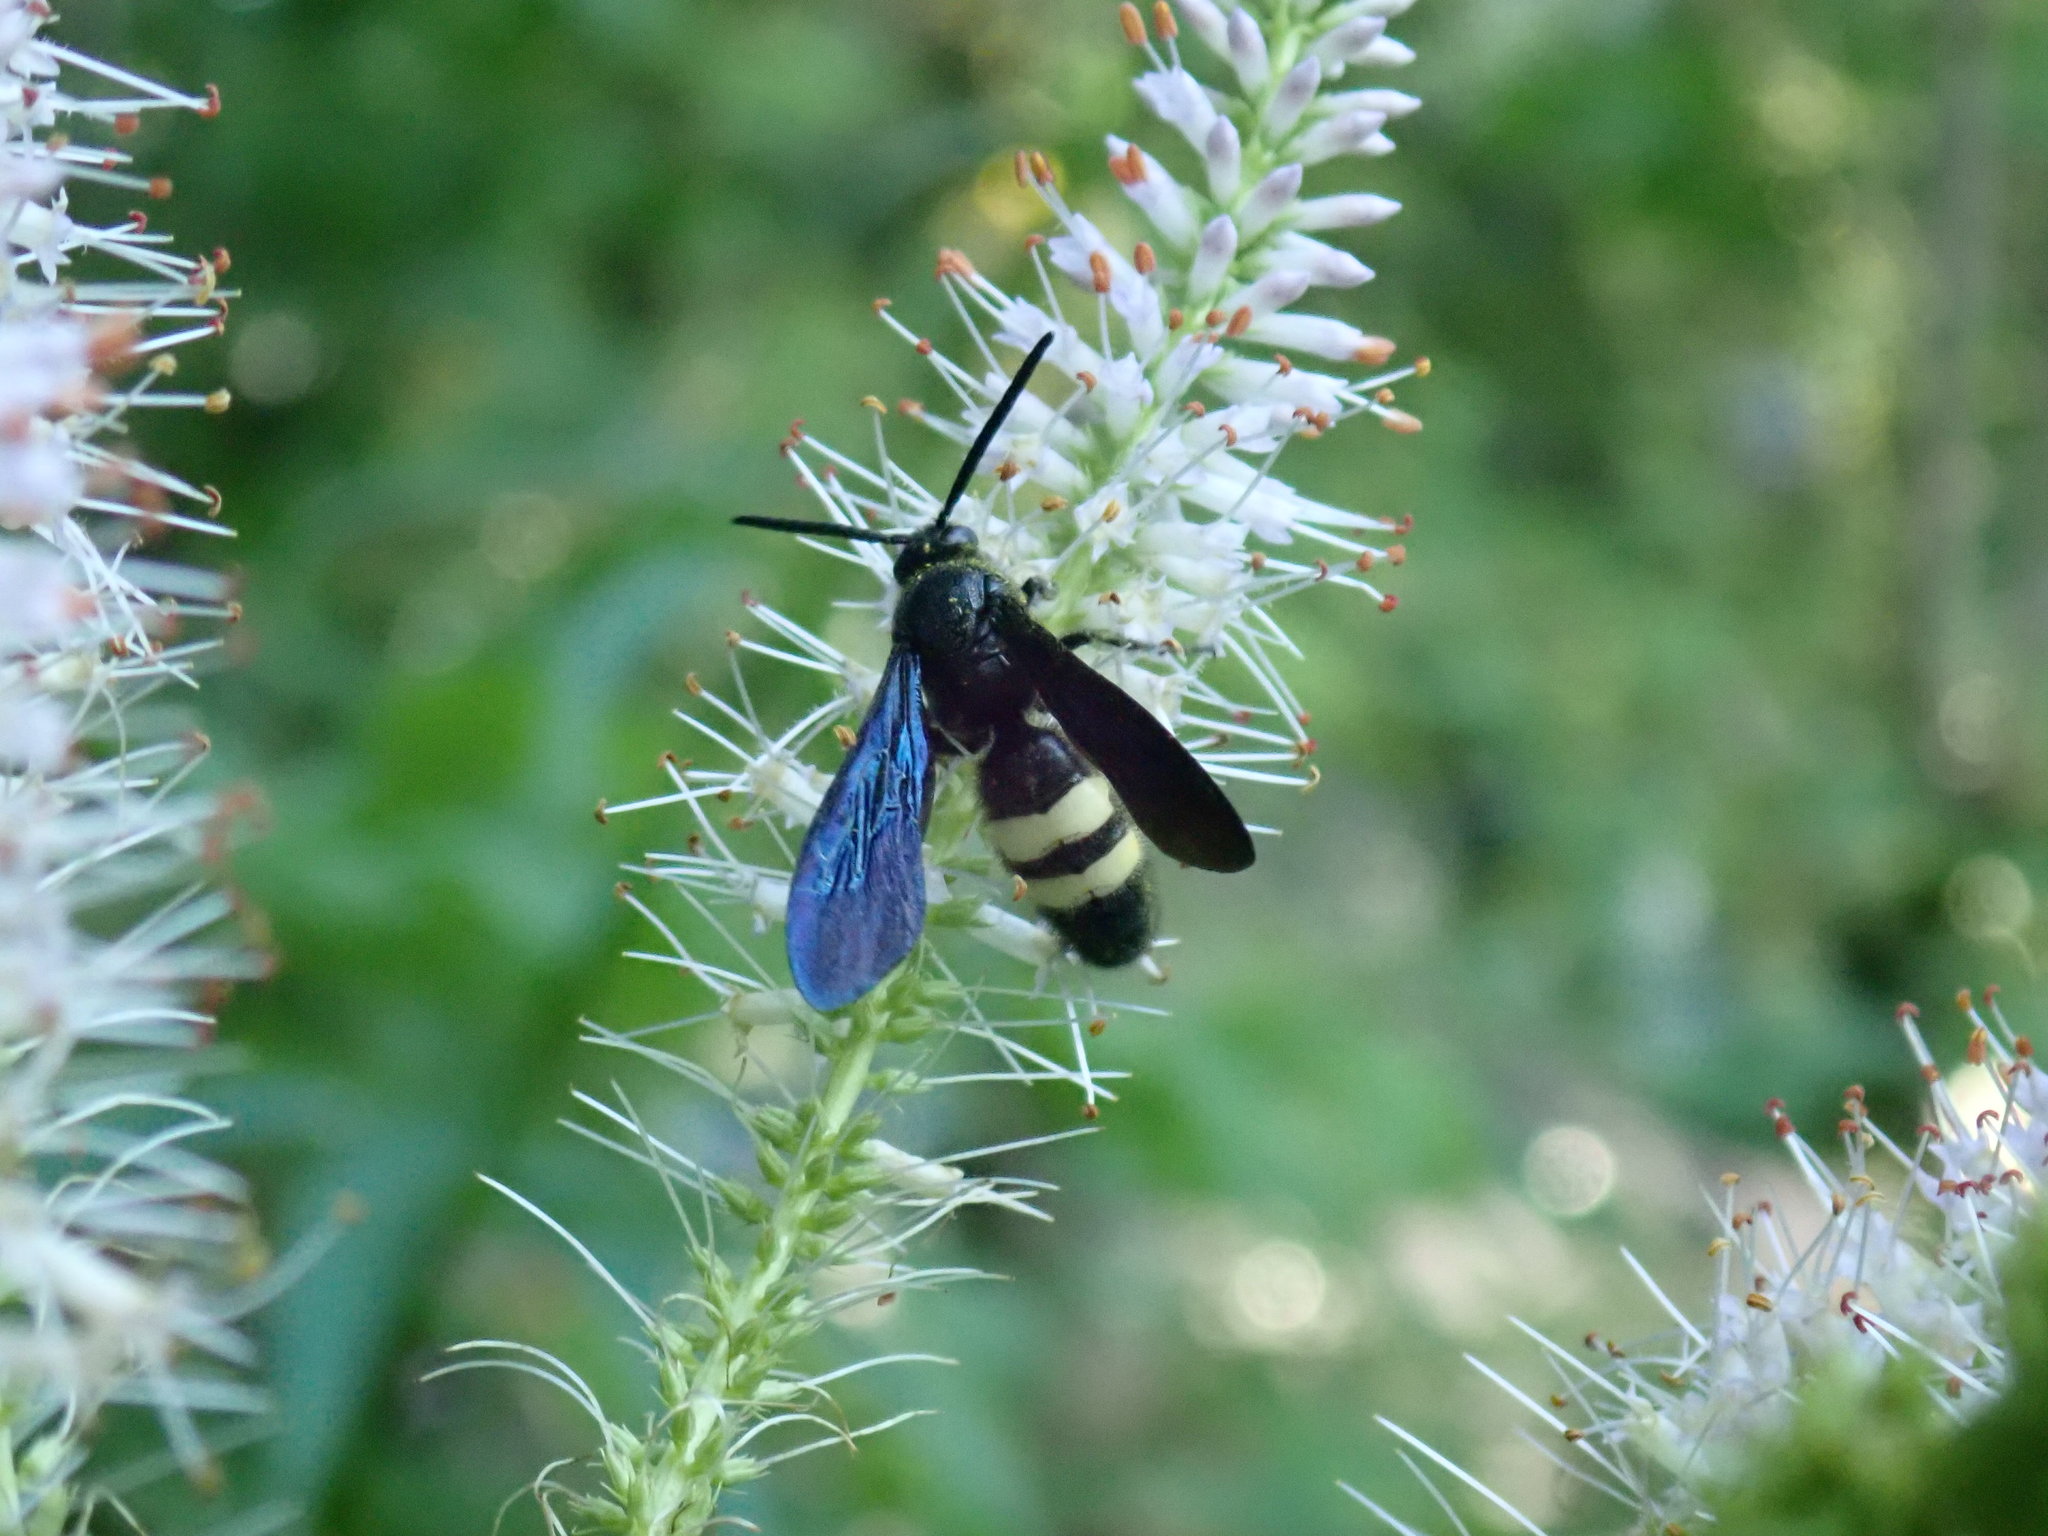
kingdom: Animalia
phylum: Arthropoda
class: Insecta
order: Hymenoptera
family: Scoliidae
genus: Scolia
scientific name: Scolia bicincta
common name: Double-banded scoliid wasp
